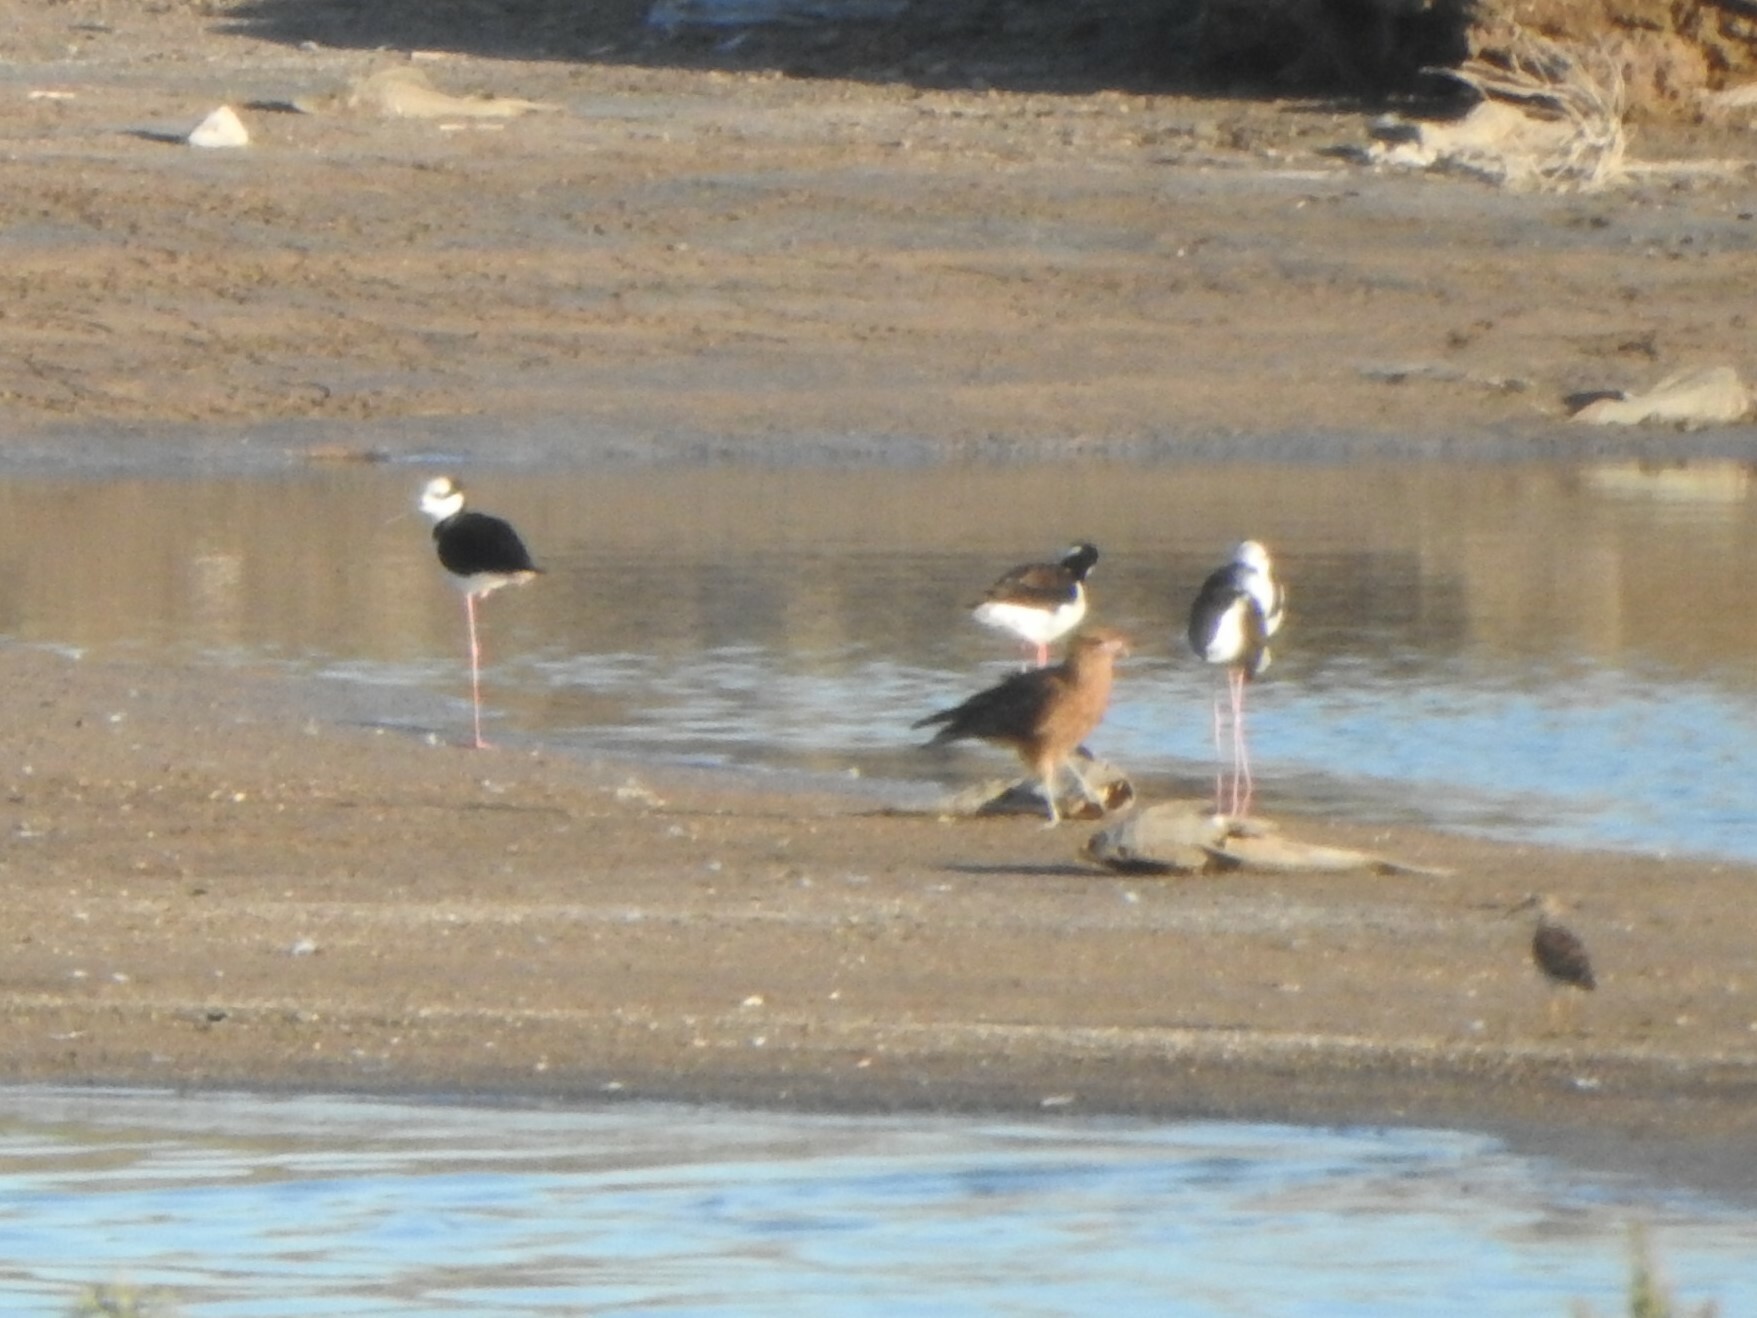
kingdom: Animalia
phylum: Chordata
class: Aves
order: Charadriiformes
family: Recurvirostridae
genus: Himantopus
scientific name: Himantopus mexicanus
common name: Black-necked stilt
